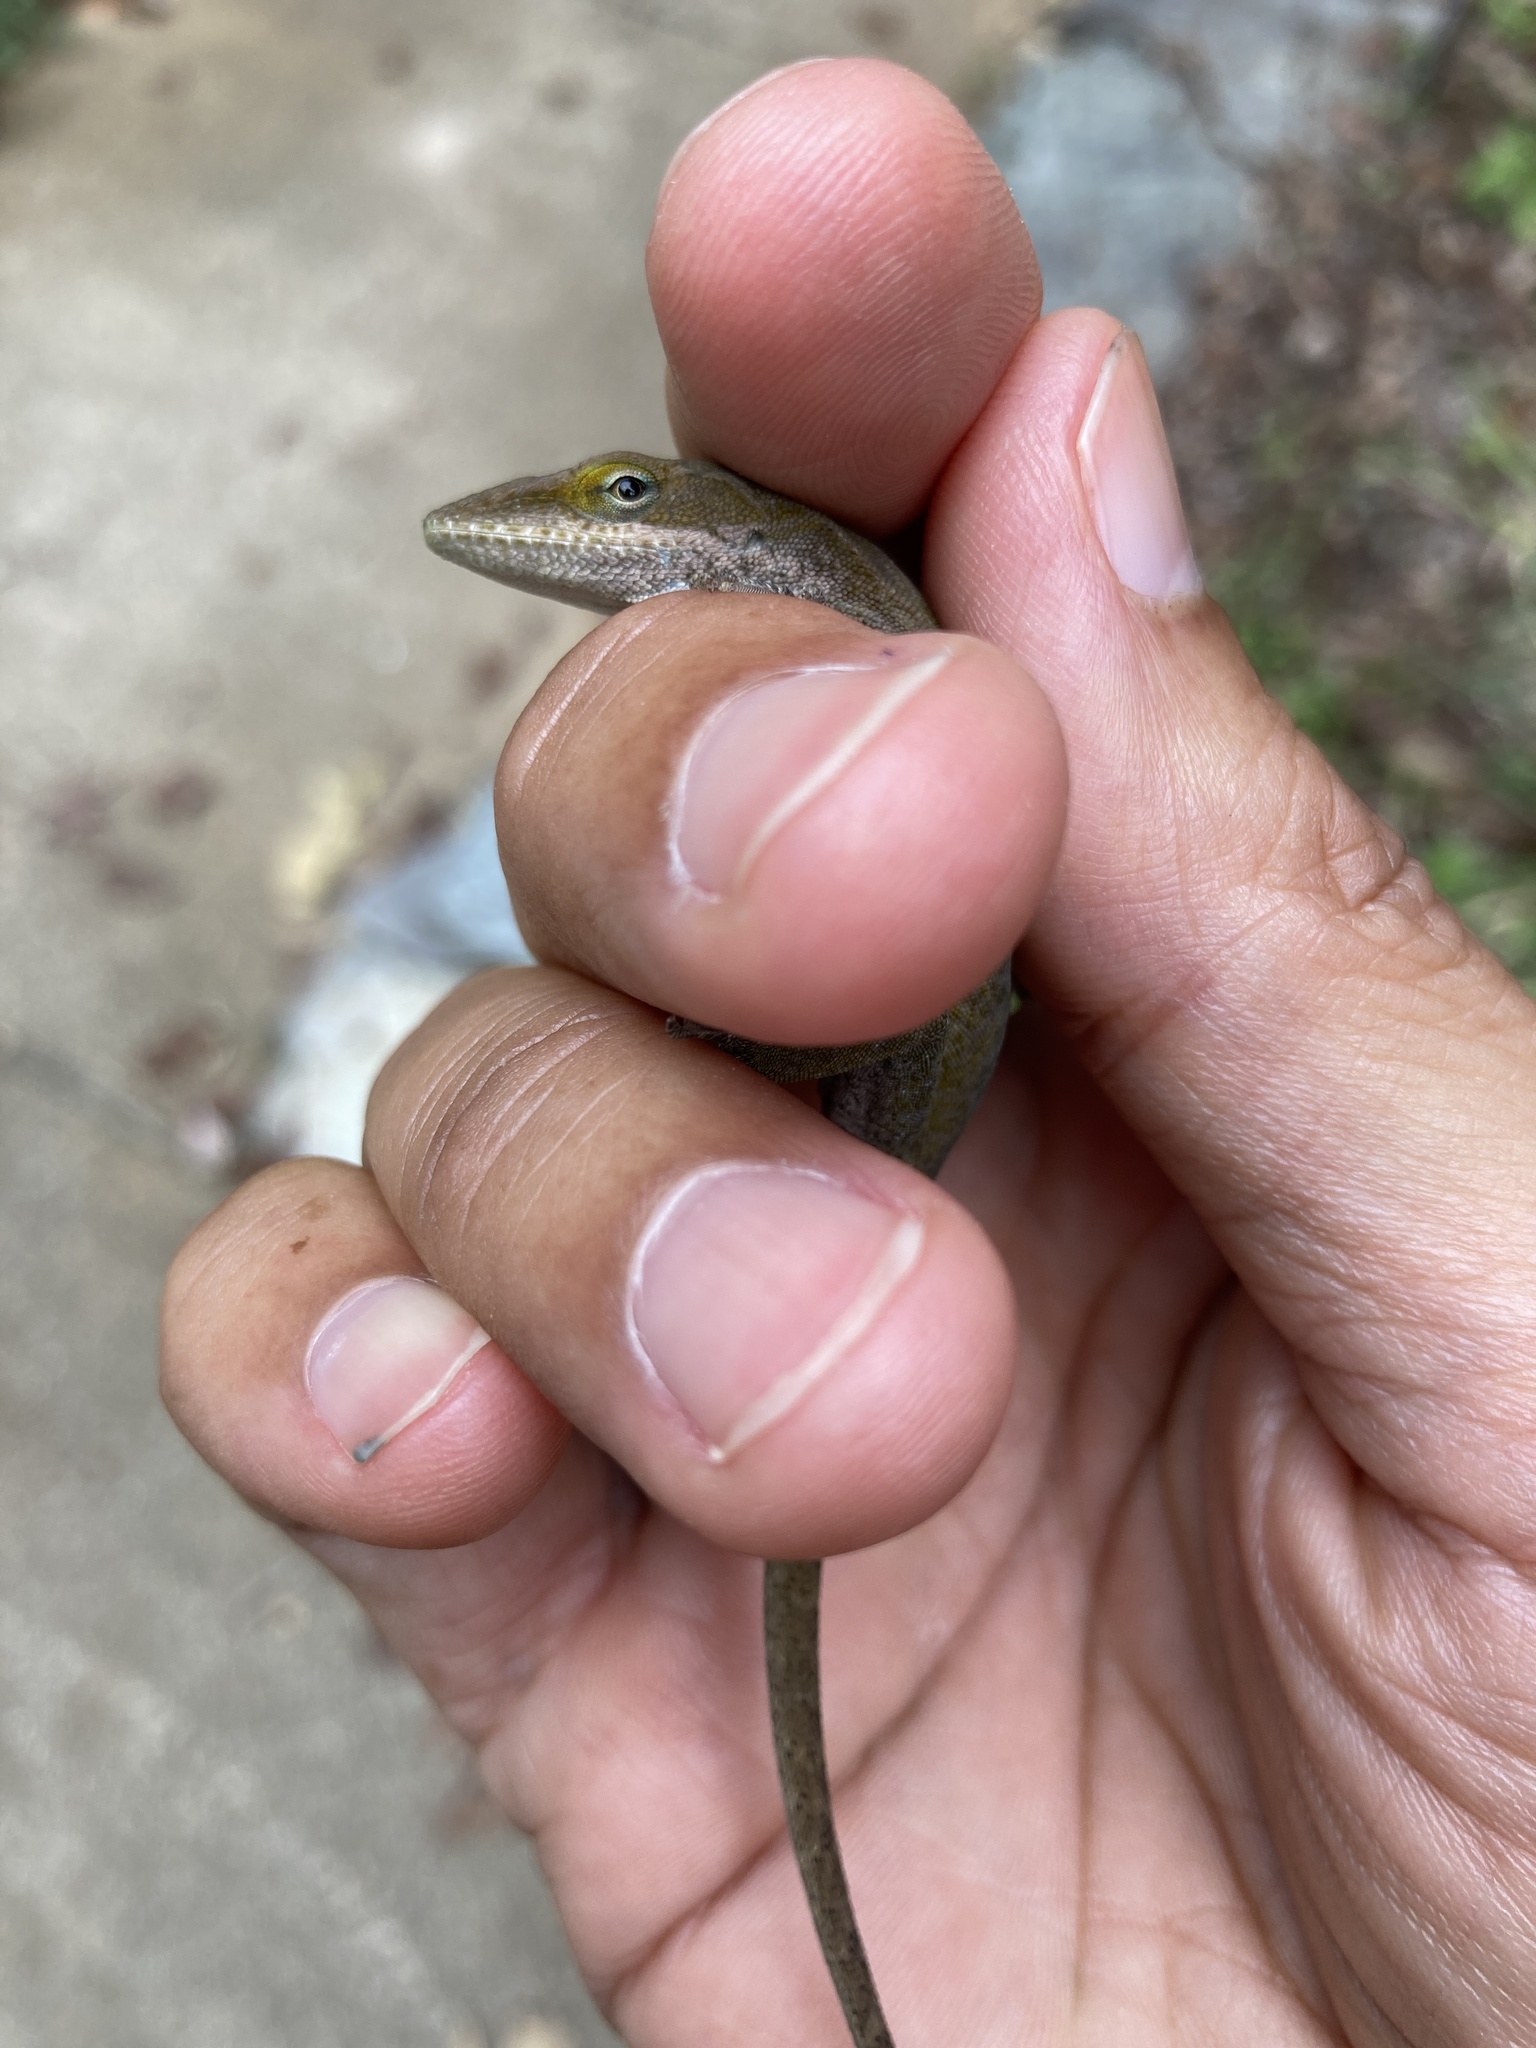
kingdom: Animalia
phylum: Chordata
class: Squamata
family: Dactyloidae
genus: Anolis
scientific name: Anolis carolinensis
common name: Green anole
